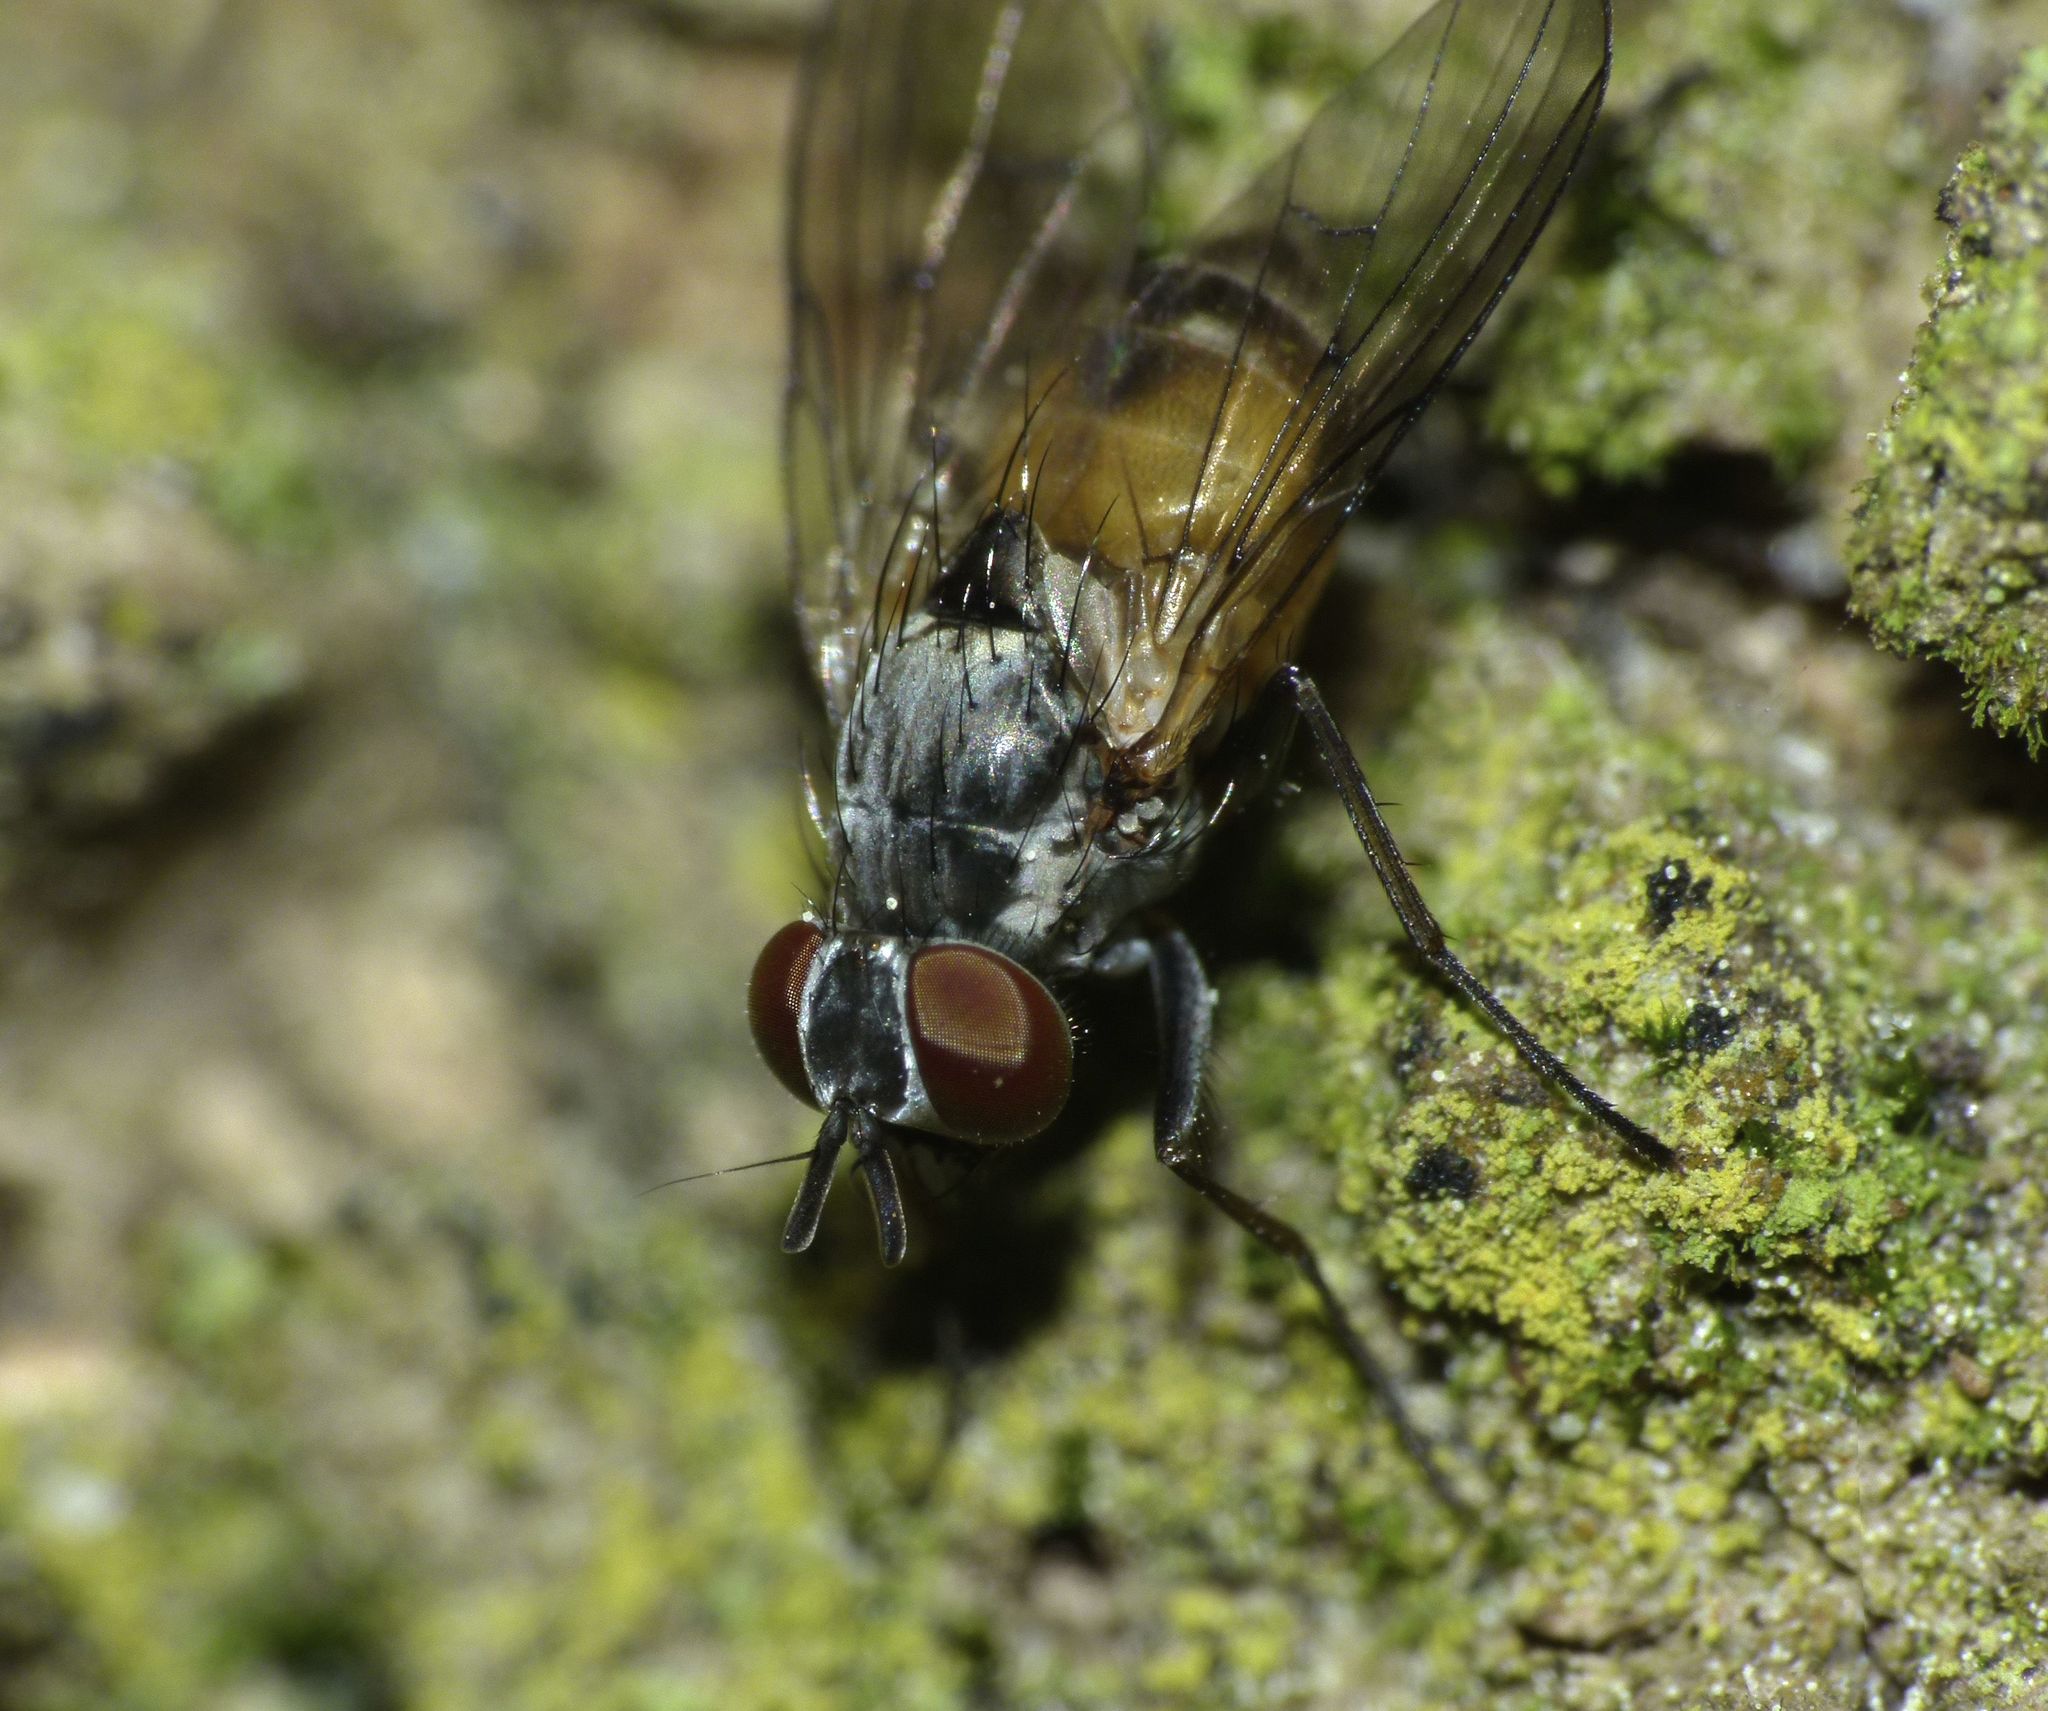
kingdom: Animalia
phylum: Arthropoda
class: Insecta
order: Diptera
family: Muscidae
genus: Spilogona
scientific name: Spilogona flaviventris
